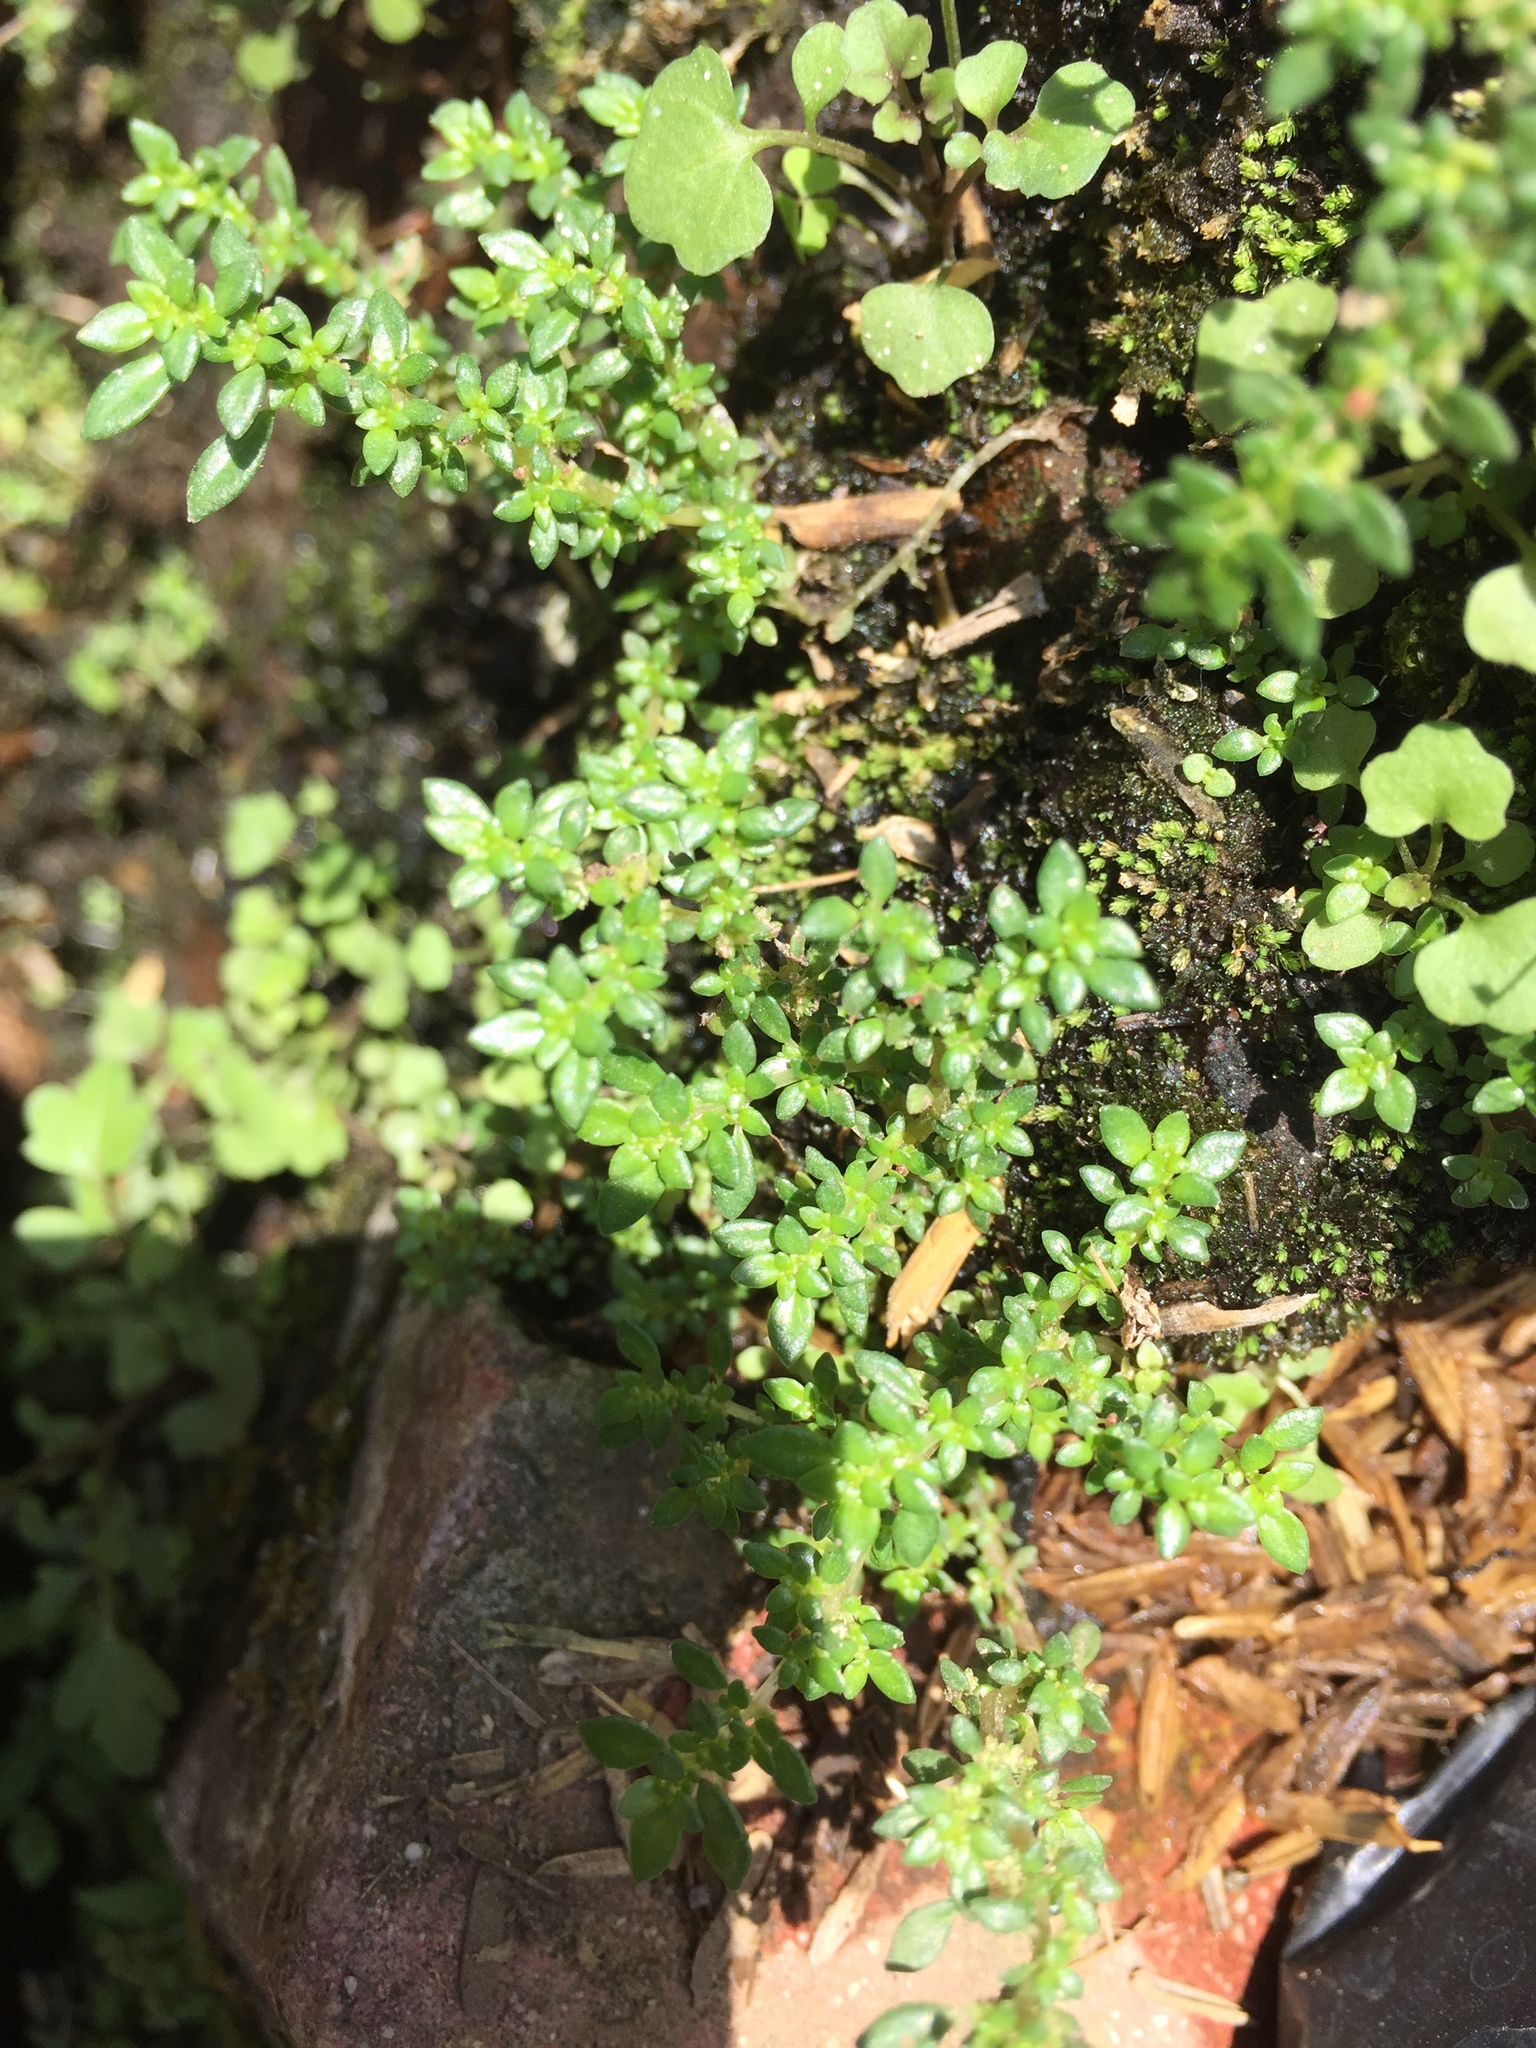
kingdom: Plantae
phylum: Tracheophyta
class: Magnoliopsida
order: Rosales
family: Urticaceae
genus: Pilea
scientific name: Pilea microphylla
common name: Artillery-plant
